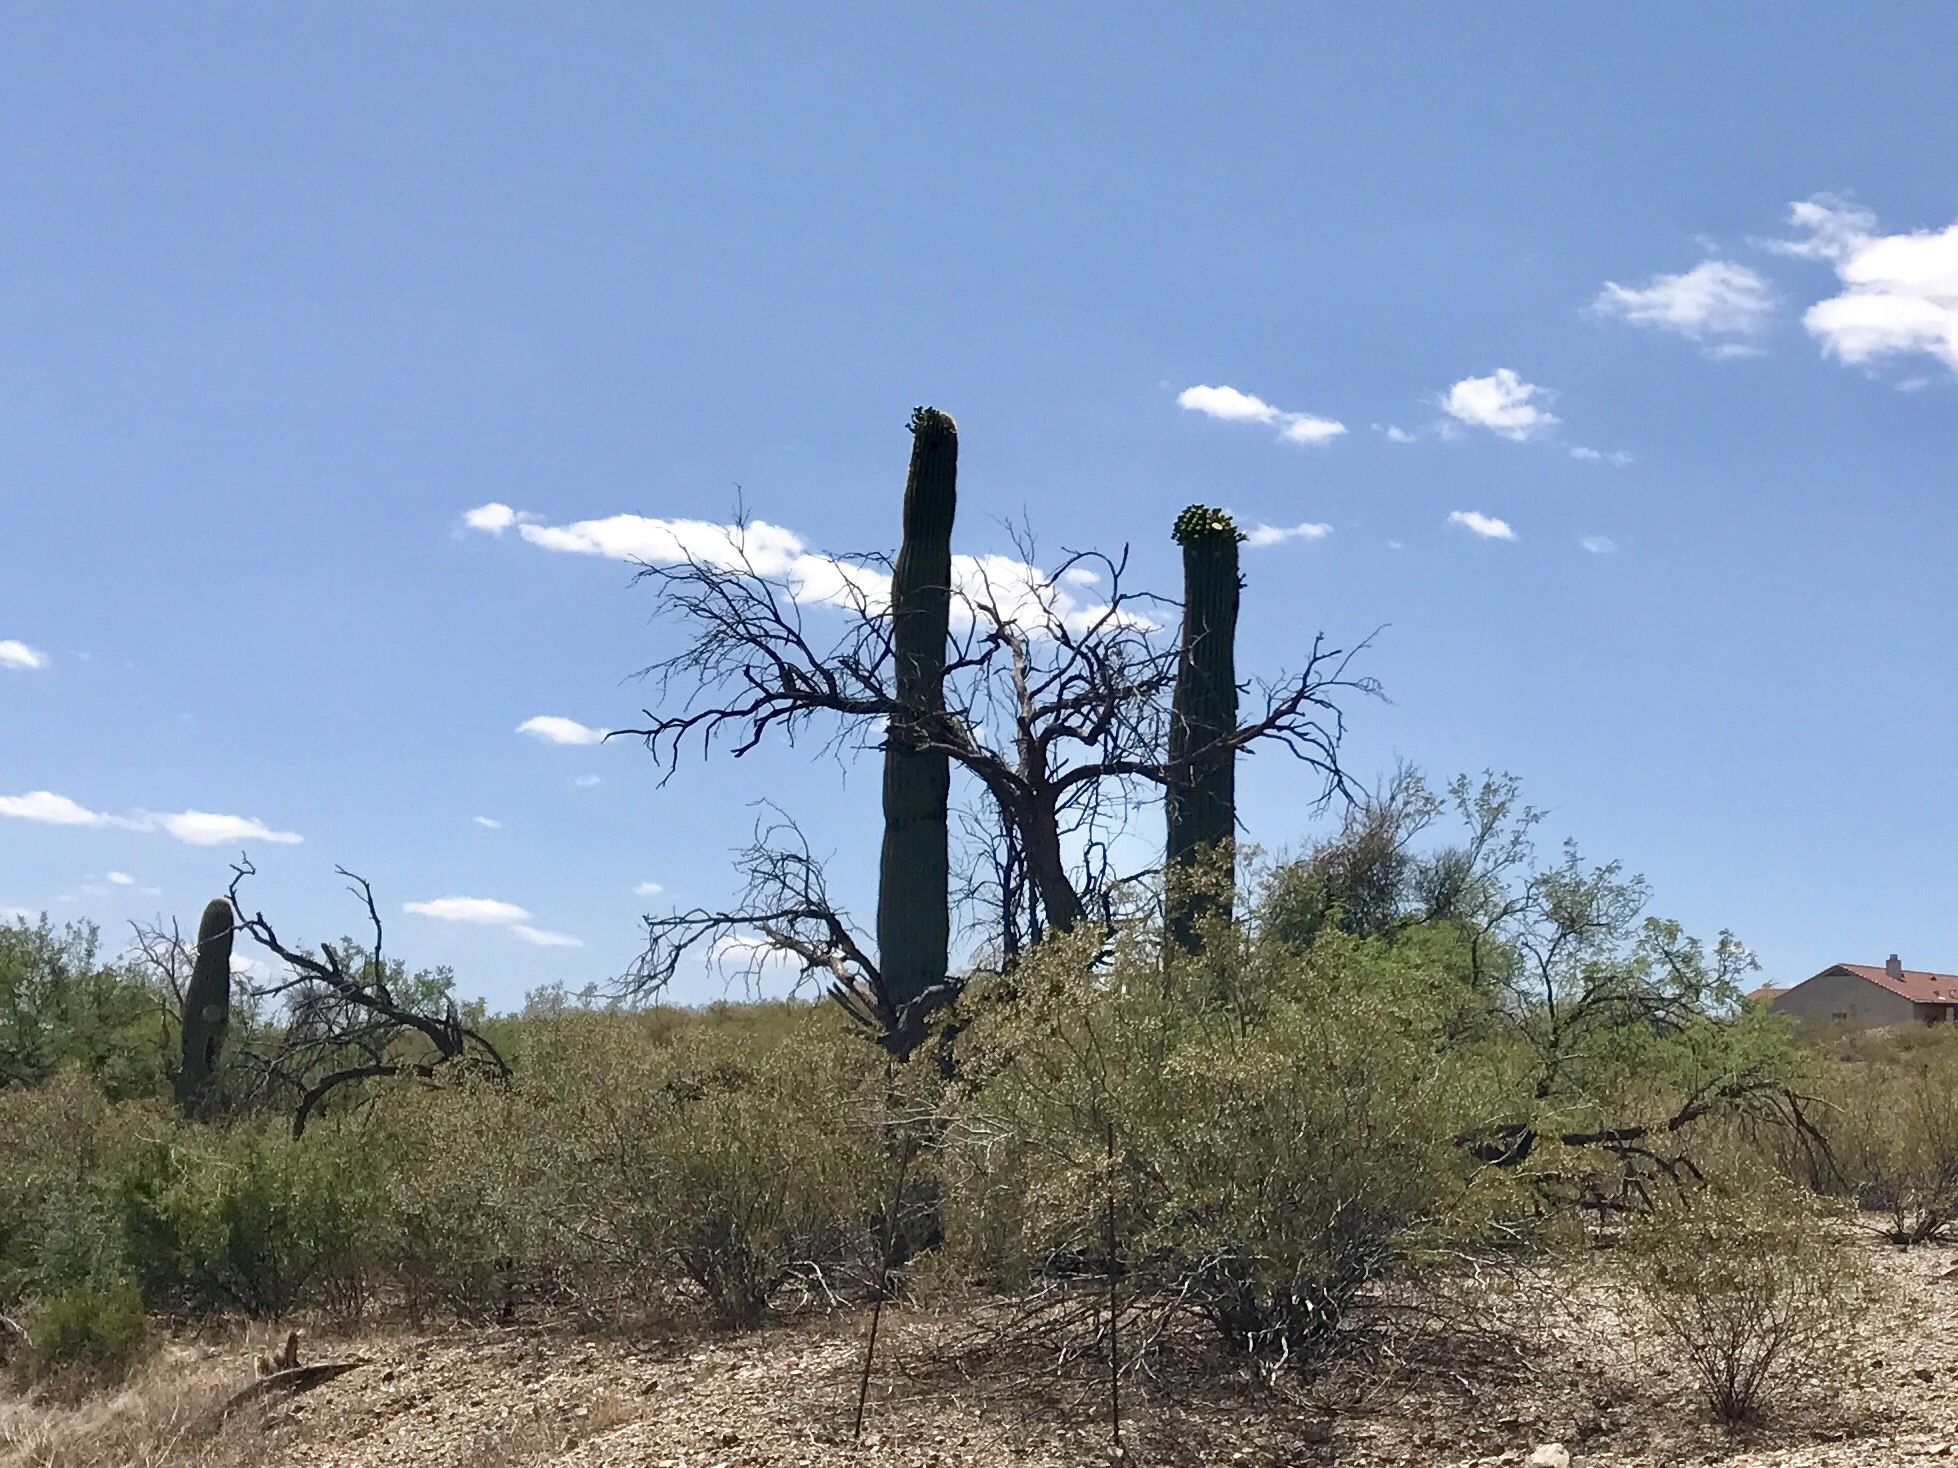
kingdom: Plantae
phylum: Tracheophyta
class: Magnoliopsida
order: Caryophyllales
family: Cactaceae
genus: Carnegiea
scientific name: Carnegiea gigantea
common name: Saguaro
